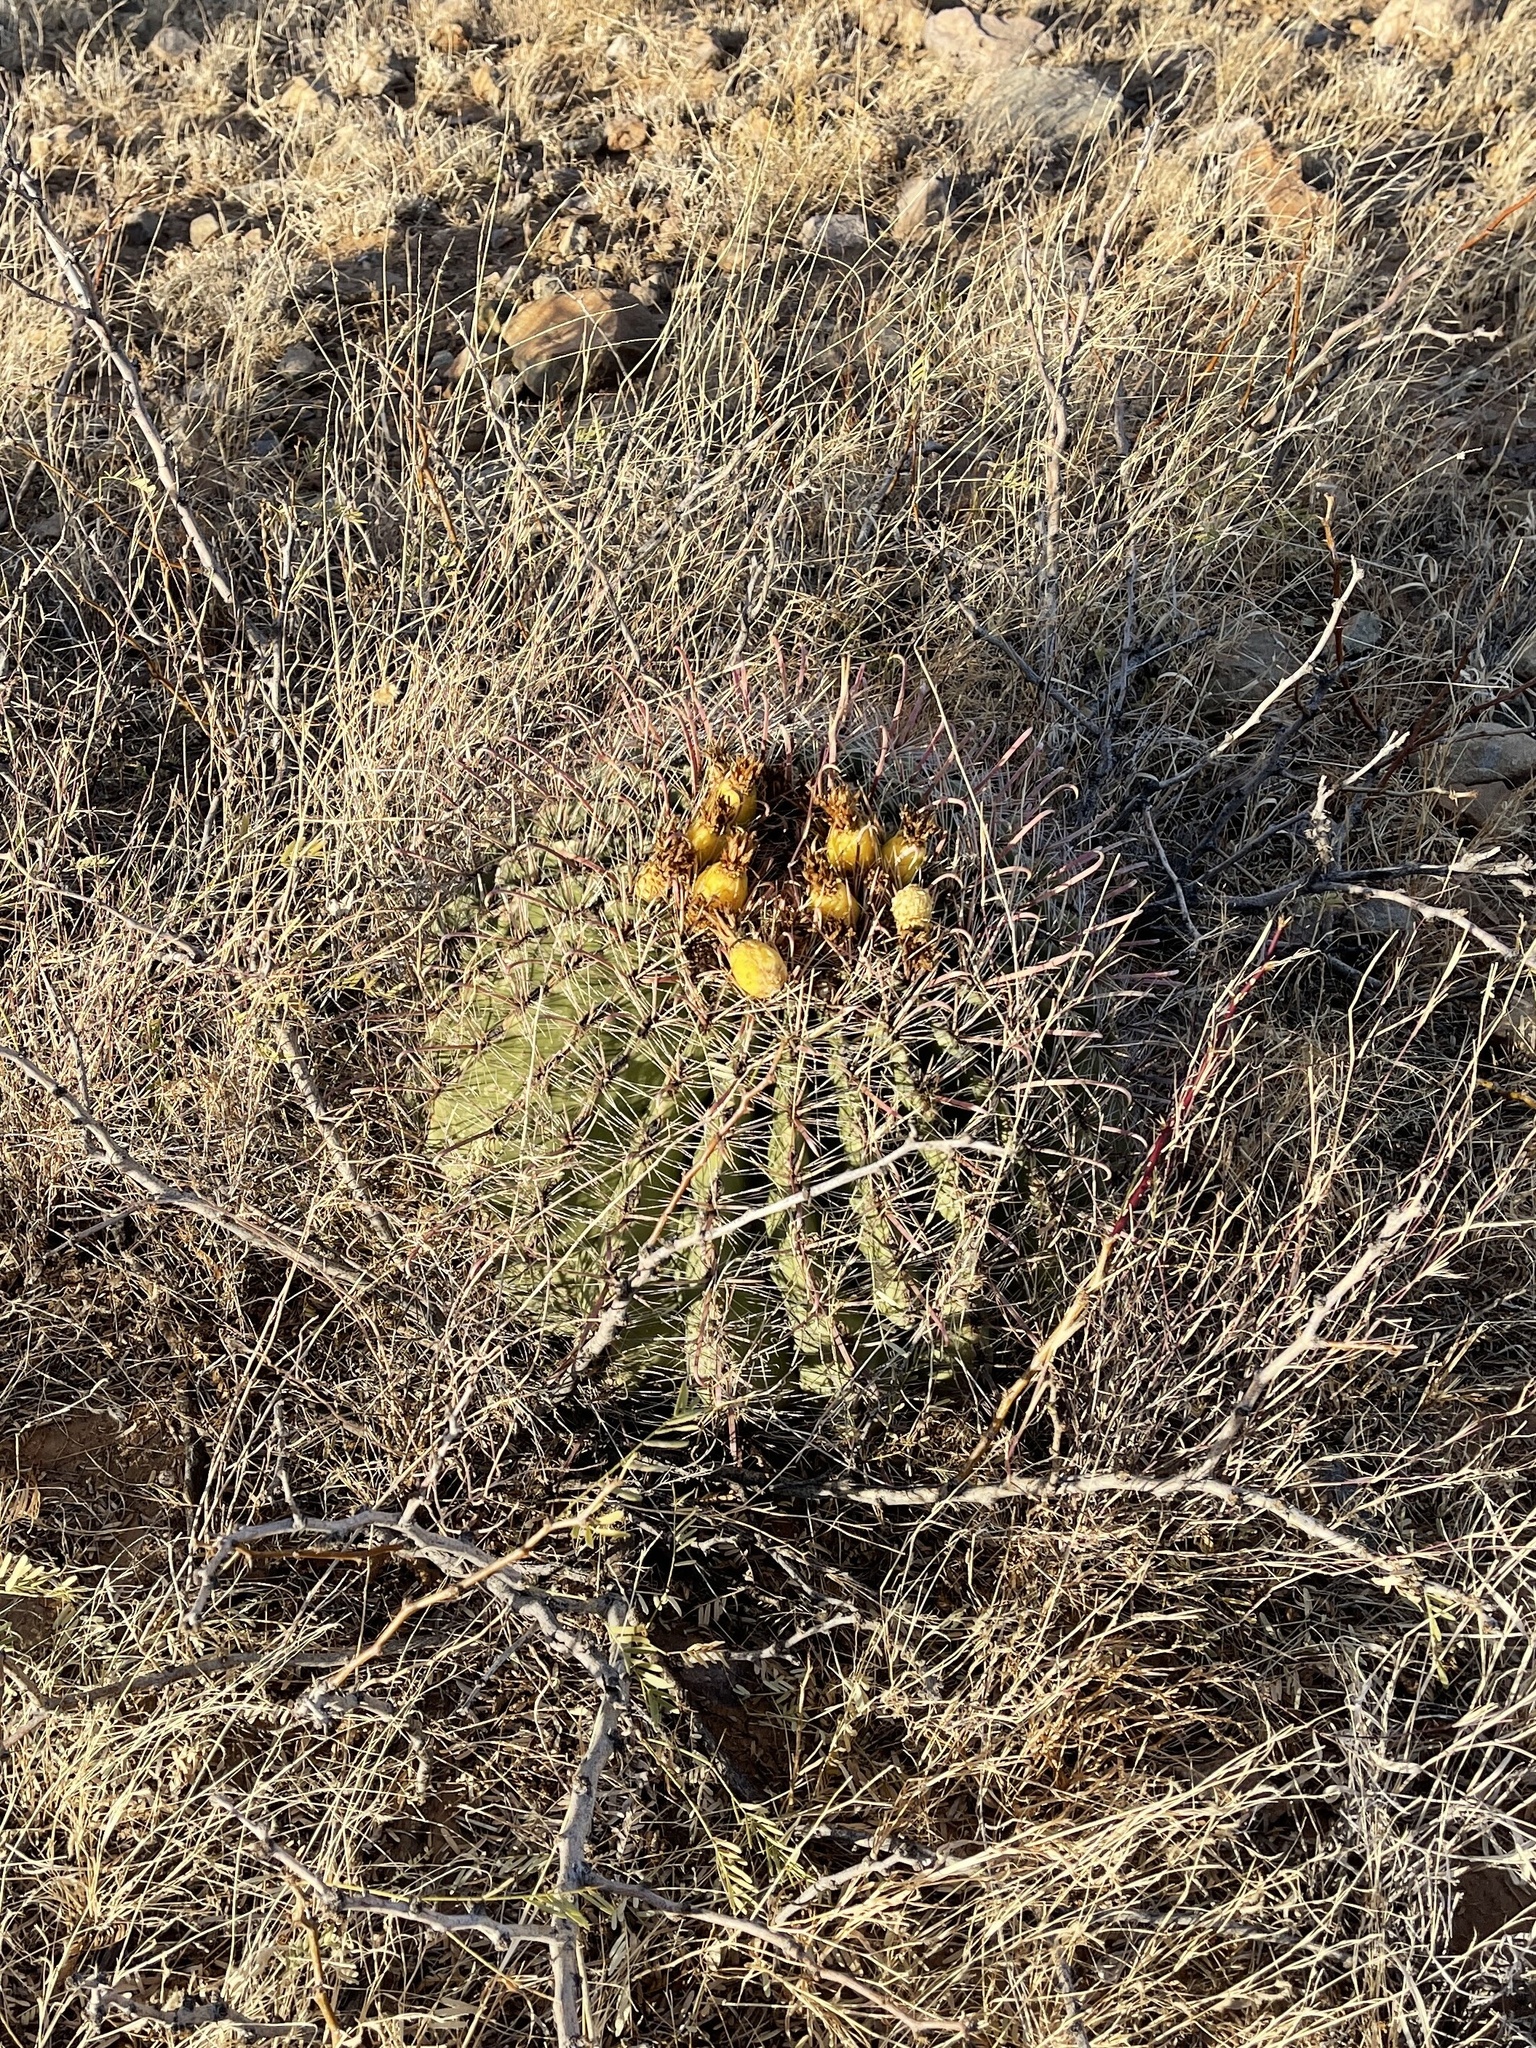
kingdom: Plantae
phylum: Tracheophyta
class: Magnoliopsida
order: Caryophyllales
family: Cactaceae
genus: Ferocactus
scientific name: Ferocactus wislizeni
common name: Candy barrel cactus
